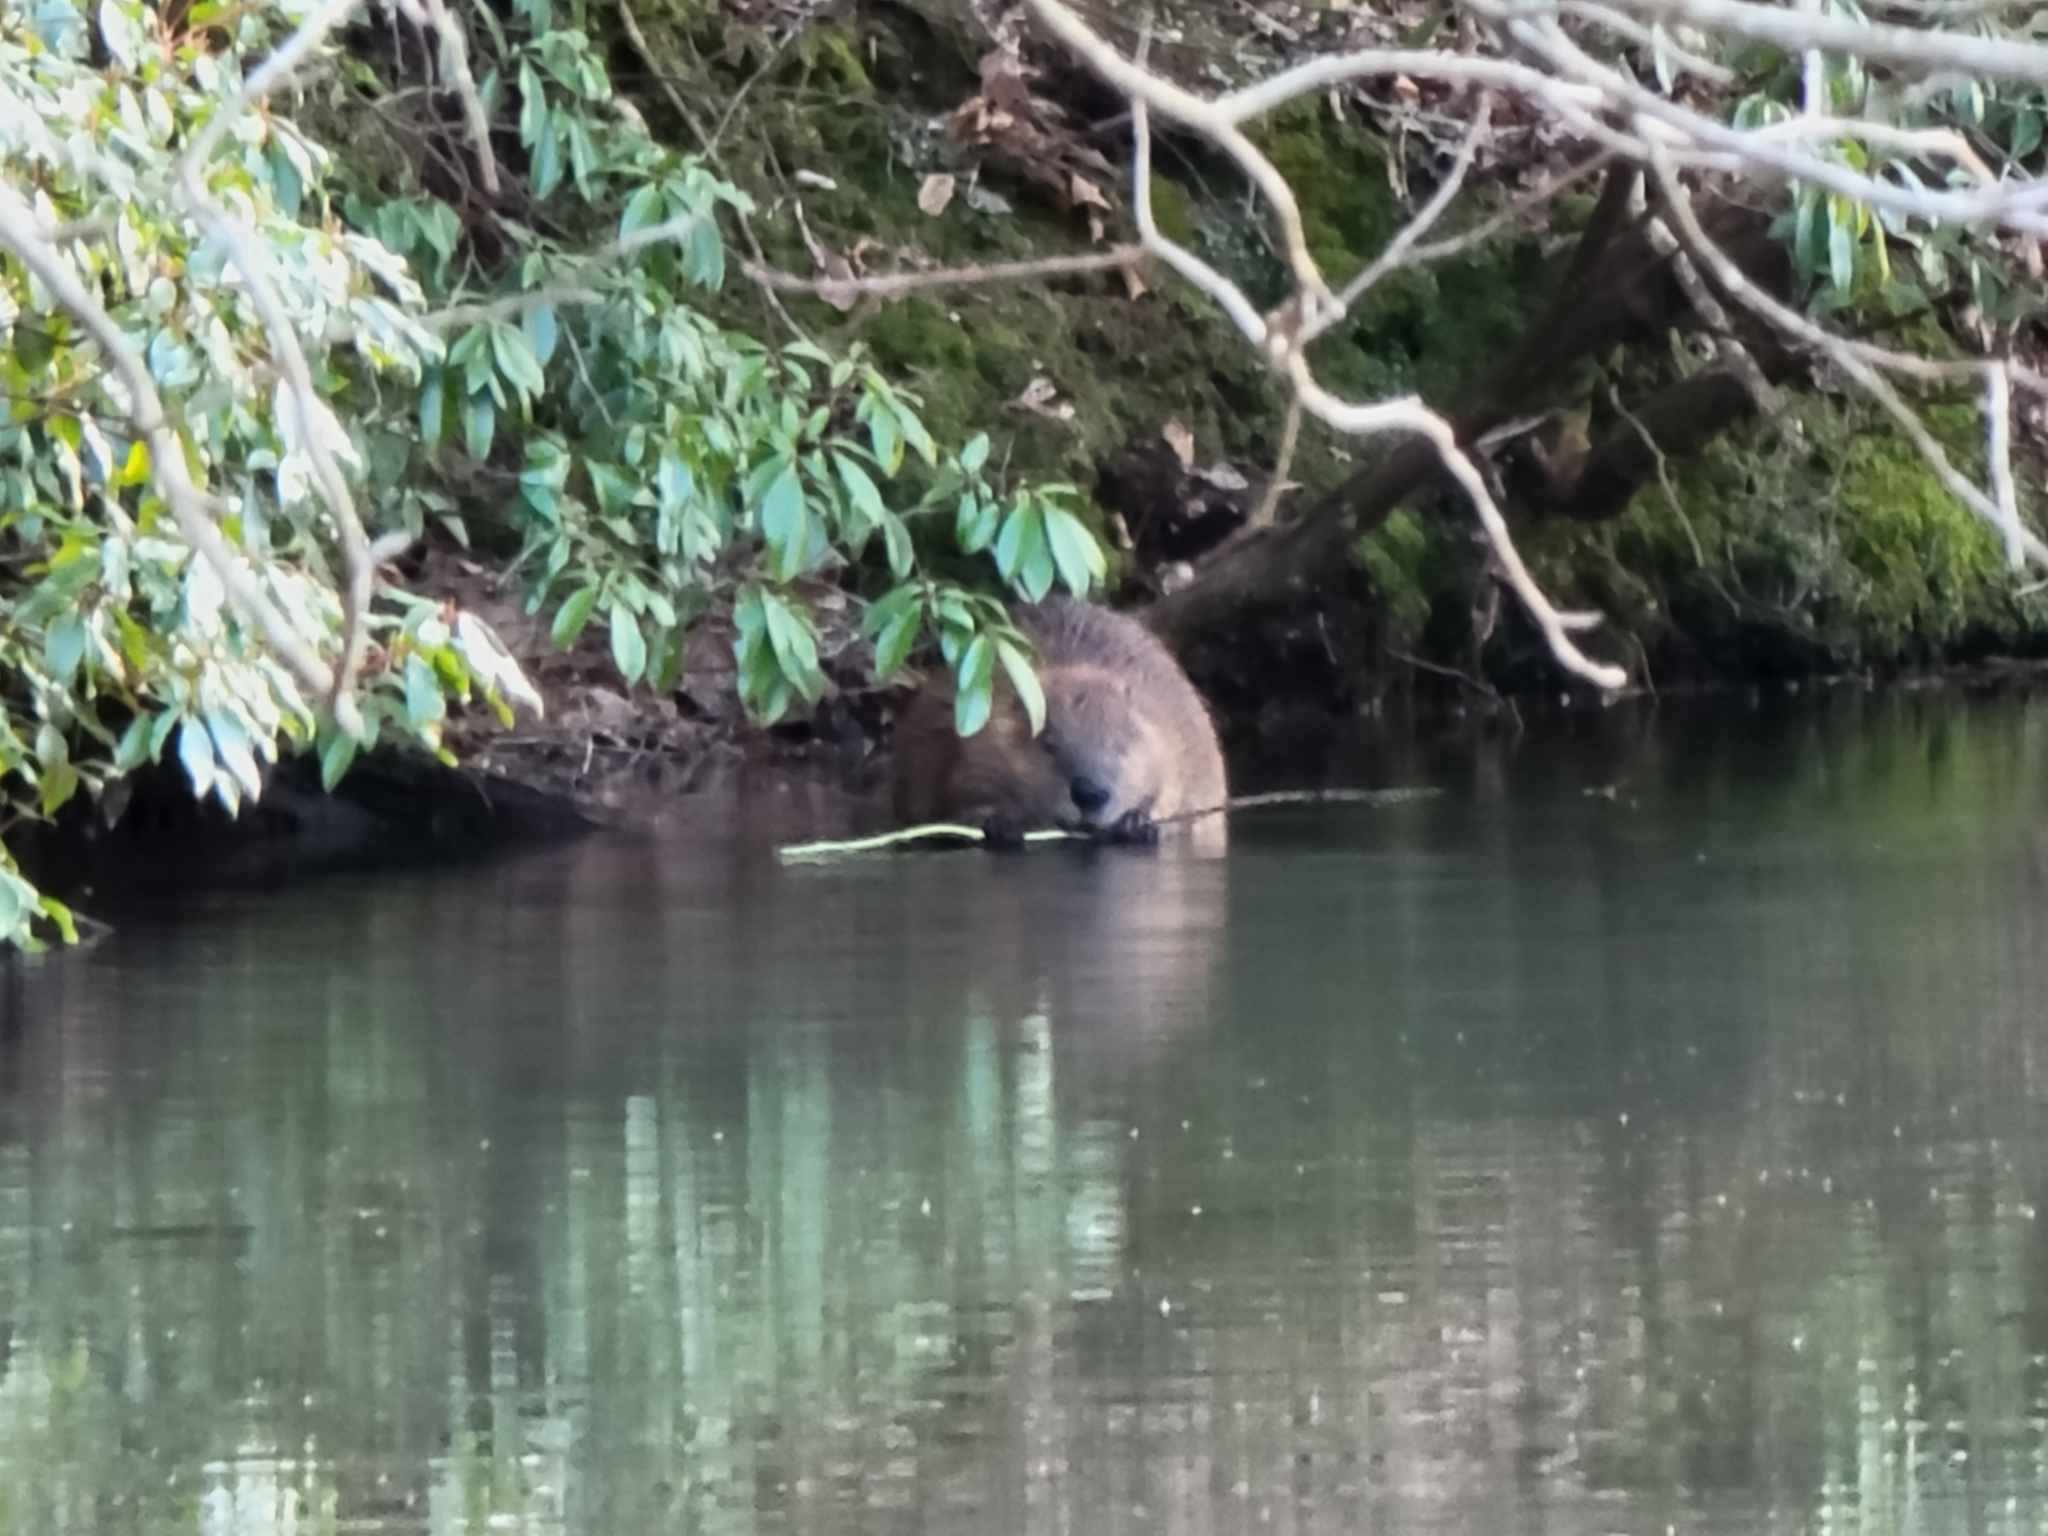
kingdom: Animalia
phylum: Chordata
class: Mammalia
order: Rodentia
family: Castoridae
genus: Castor
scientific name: Castor canadensis
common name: American beaver
